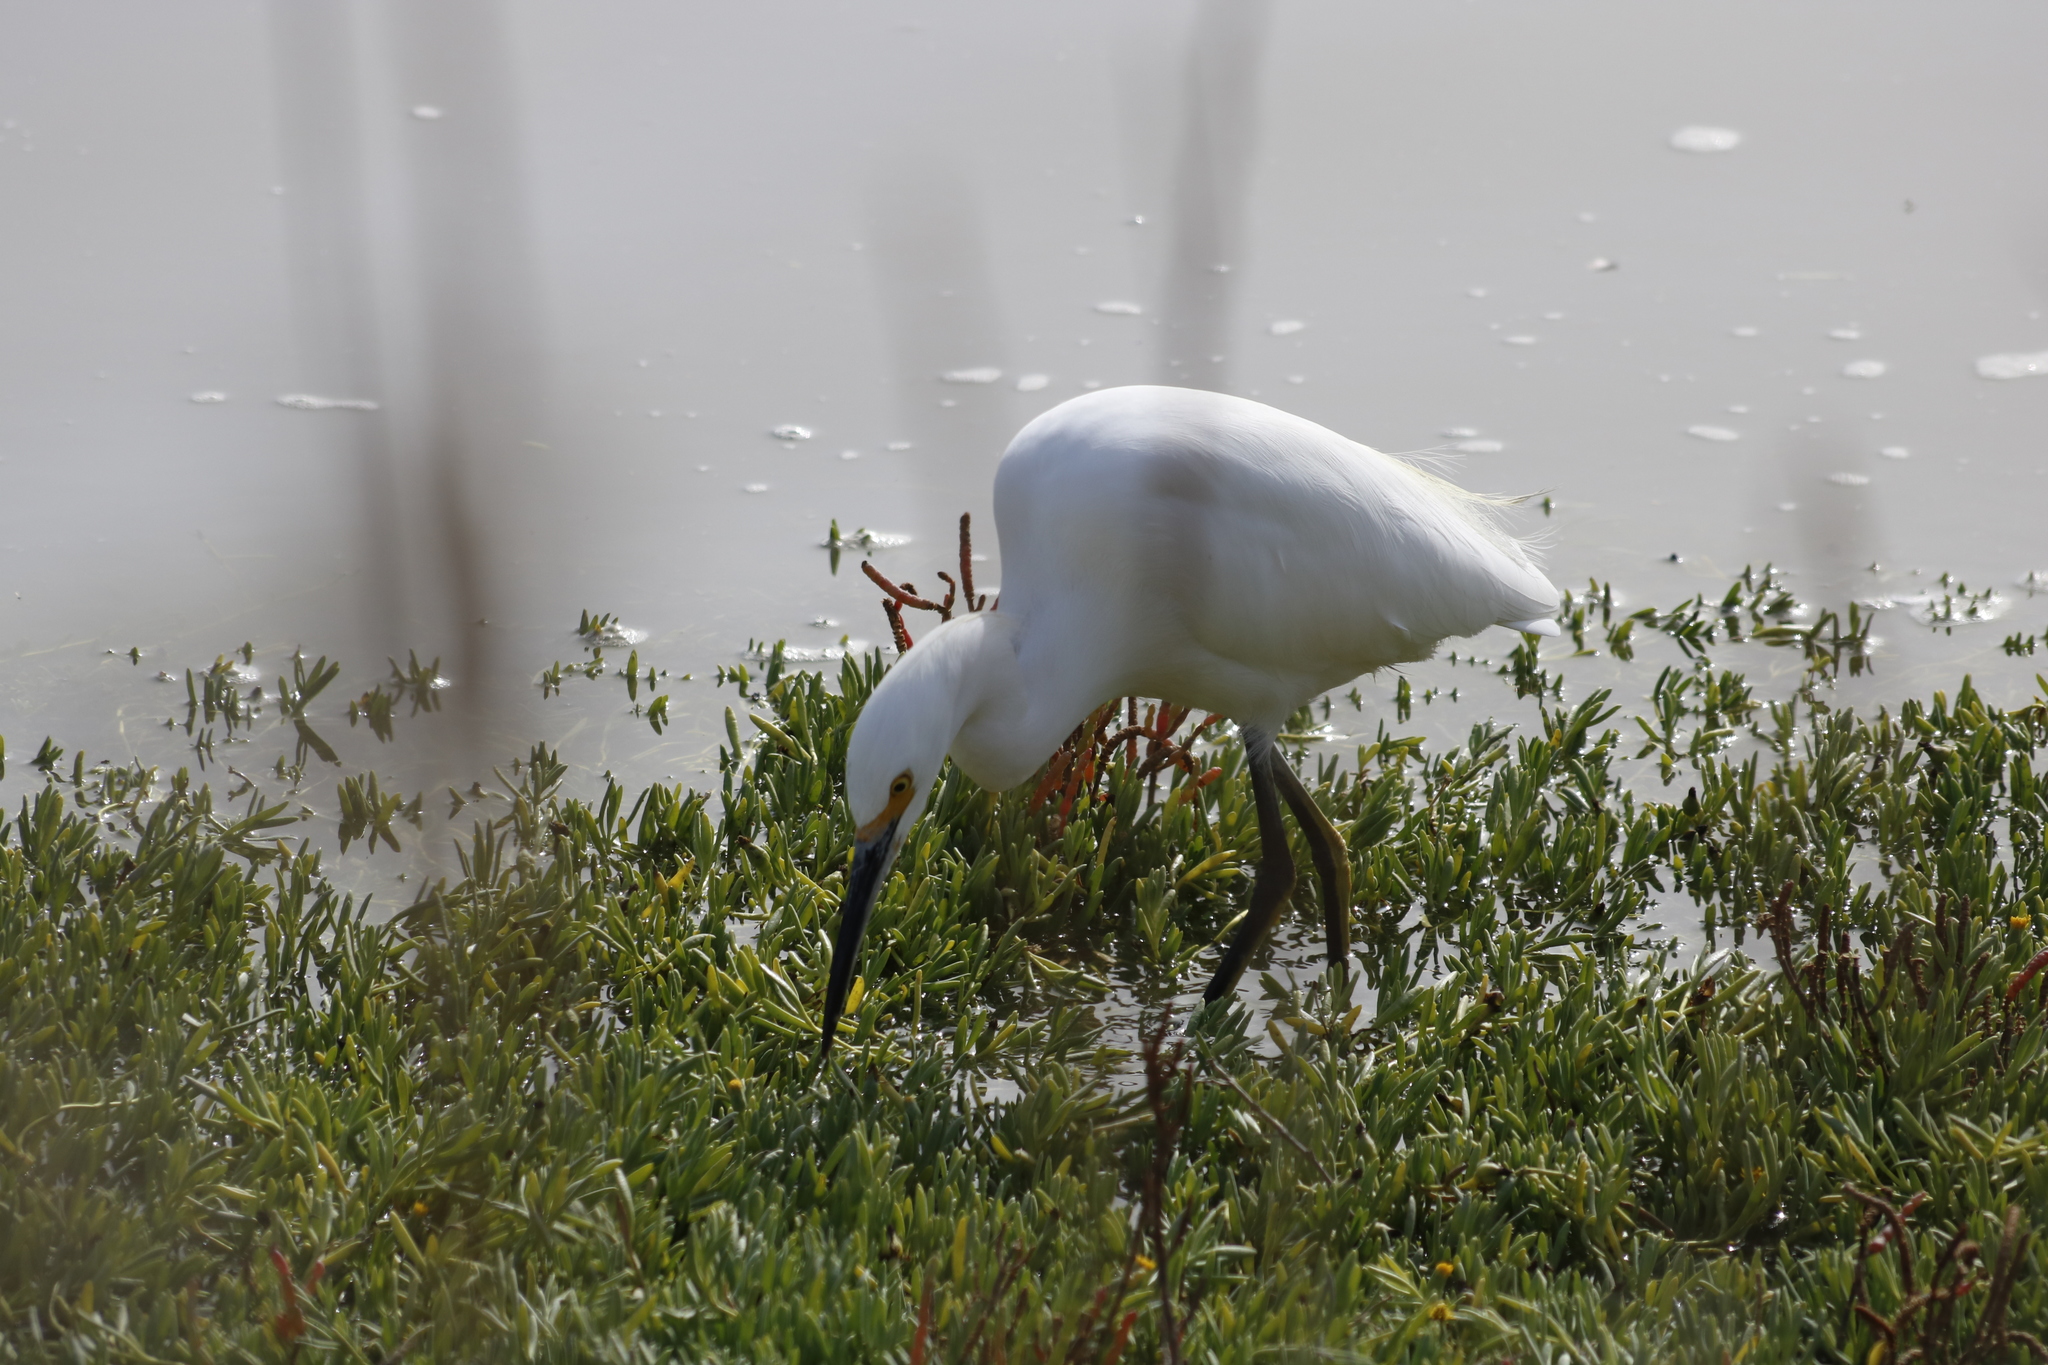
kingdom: Animalia
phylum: Chordata
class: Aves
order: Pelecaniformes
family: Ardeidae
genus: Egretta
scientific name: Egretta thula
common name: Snowy egret
